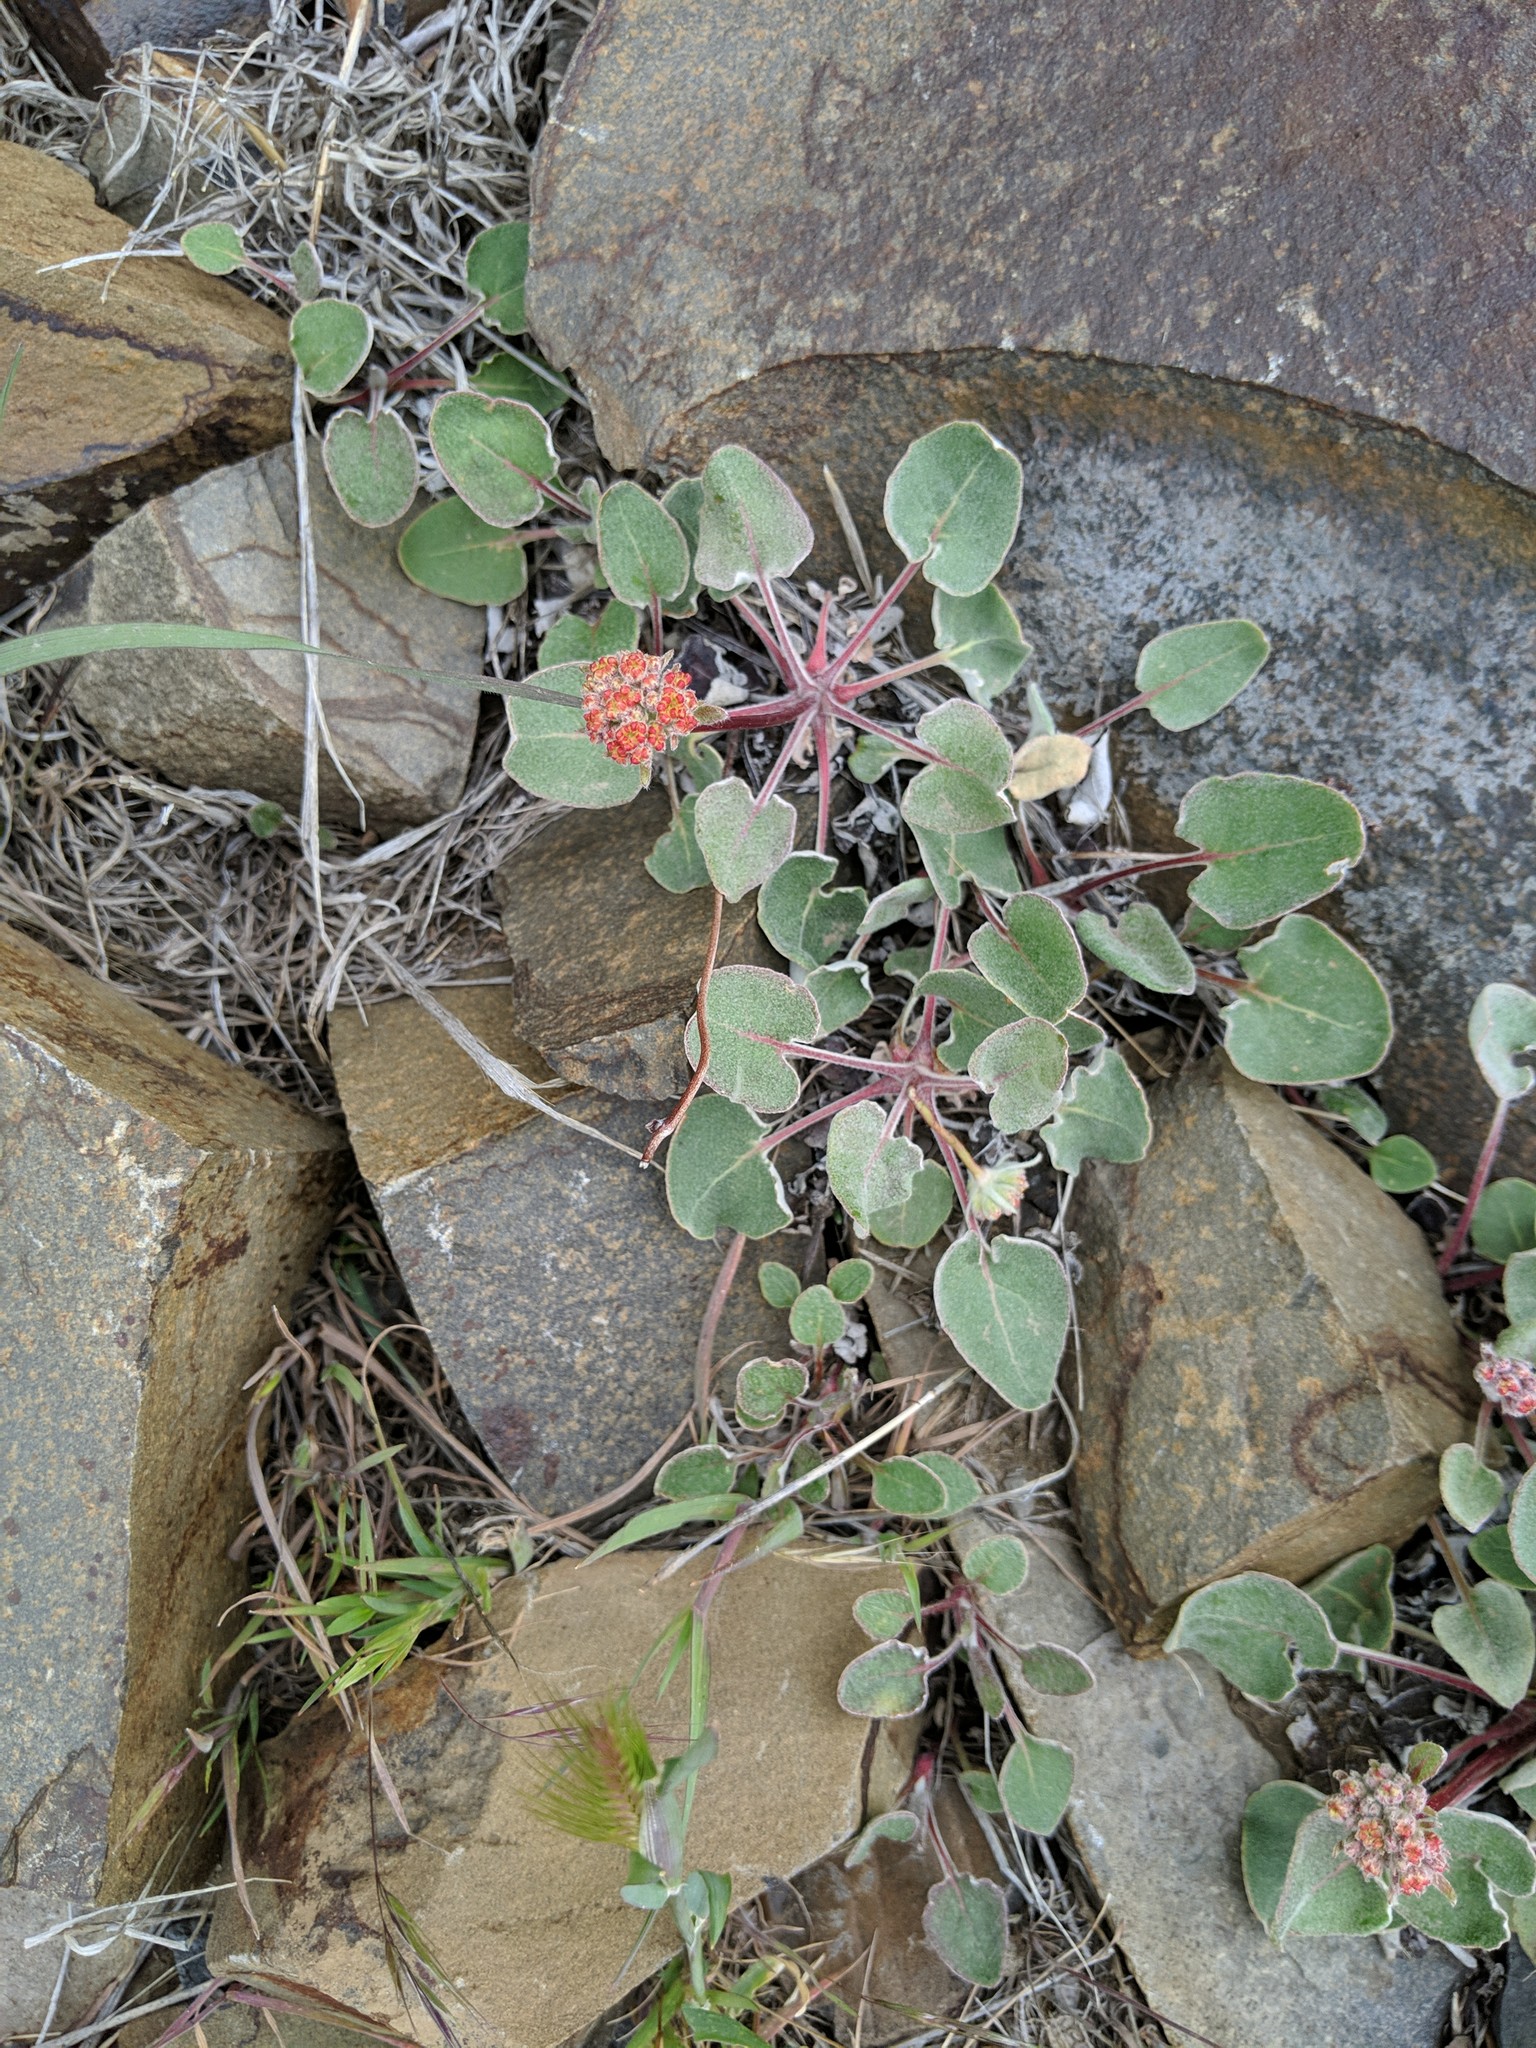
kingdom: Plantae
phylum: Tracheophyta
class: Magnoliopsida
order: Caryophyllales
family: Polygonaceae
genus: Eriogonum
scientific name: Eriogonum compositum
